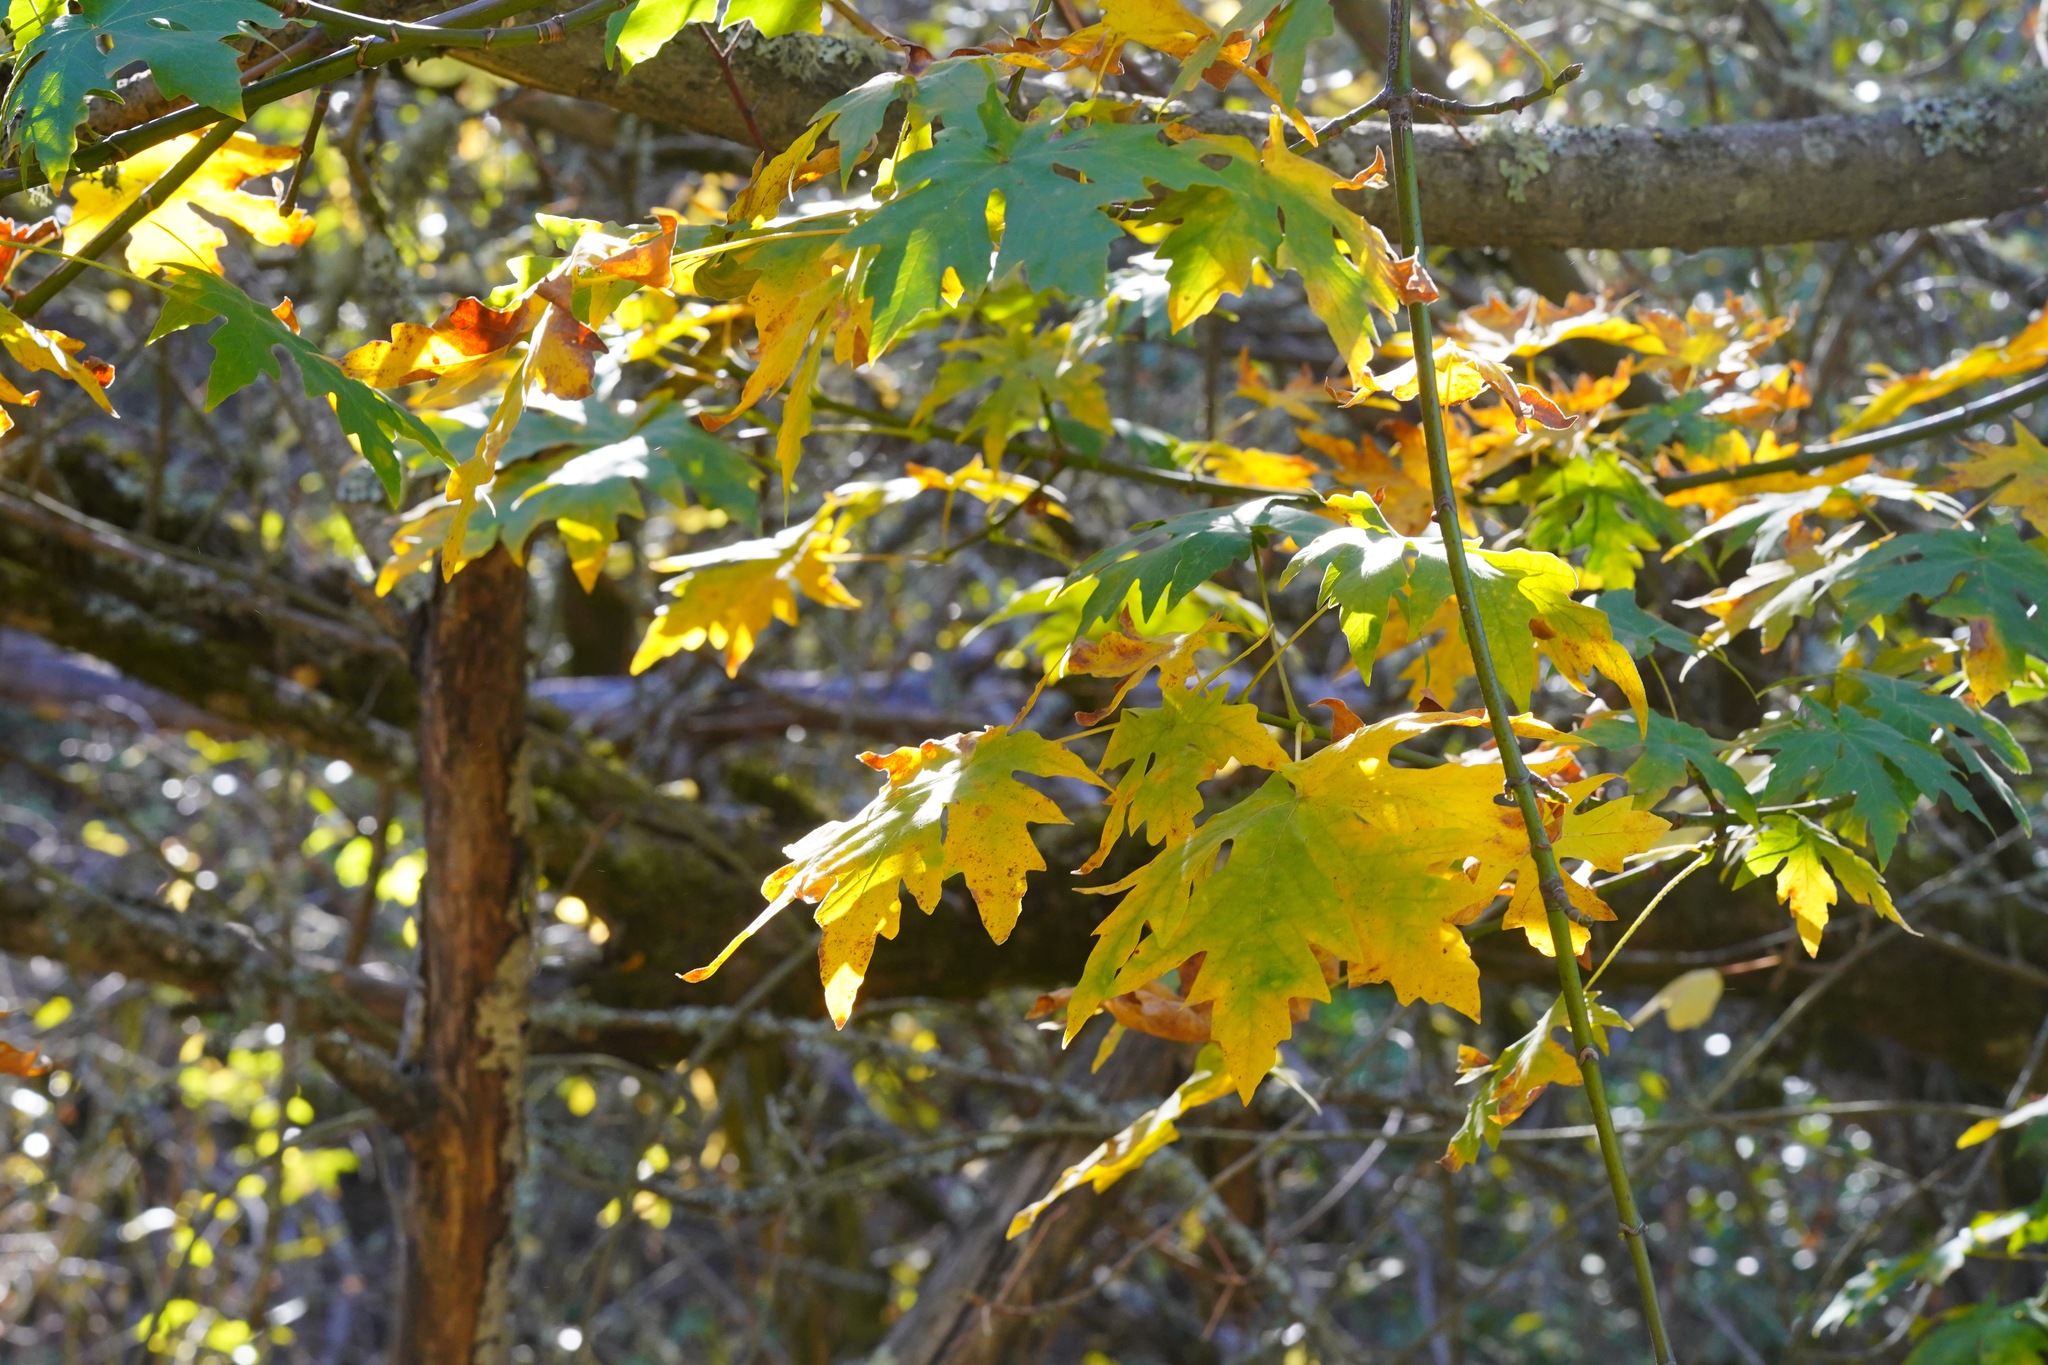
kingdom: Plantae
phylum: Tracheophyta
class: Magnoliopsida
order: Sapindales
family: Sapindaceae
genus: Acer
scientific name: Acer macrophyllum
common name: Oregon maple
